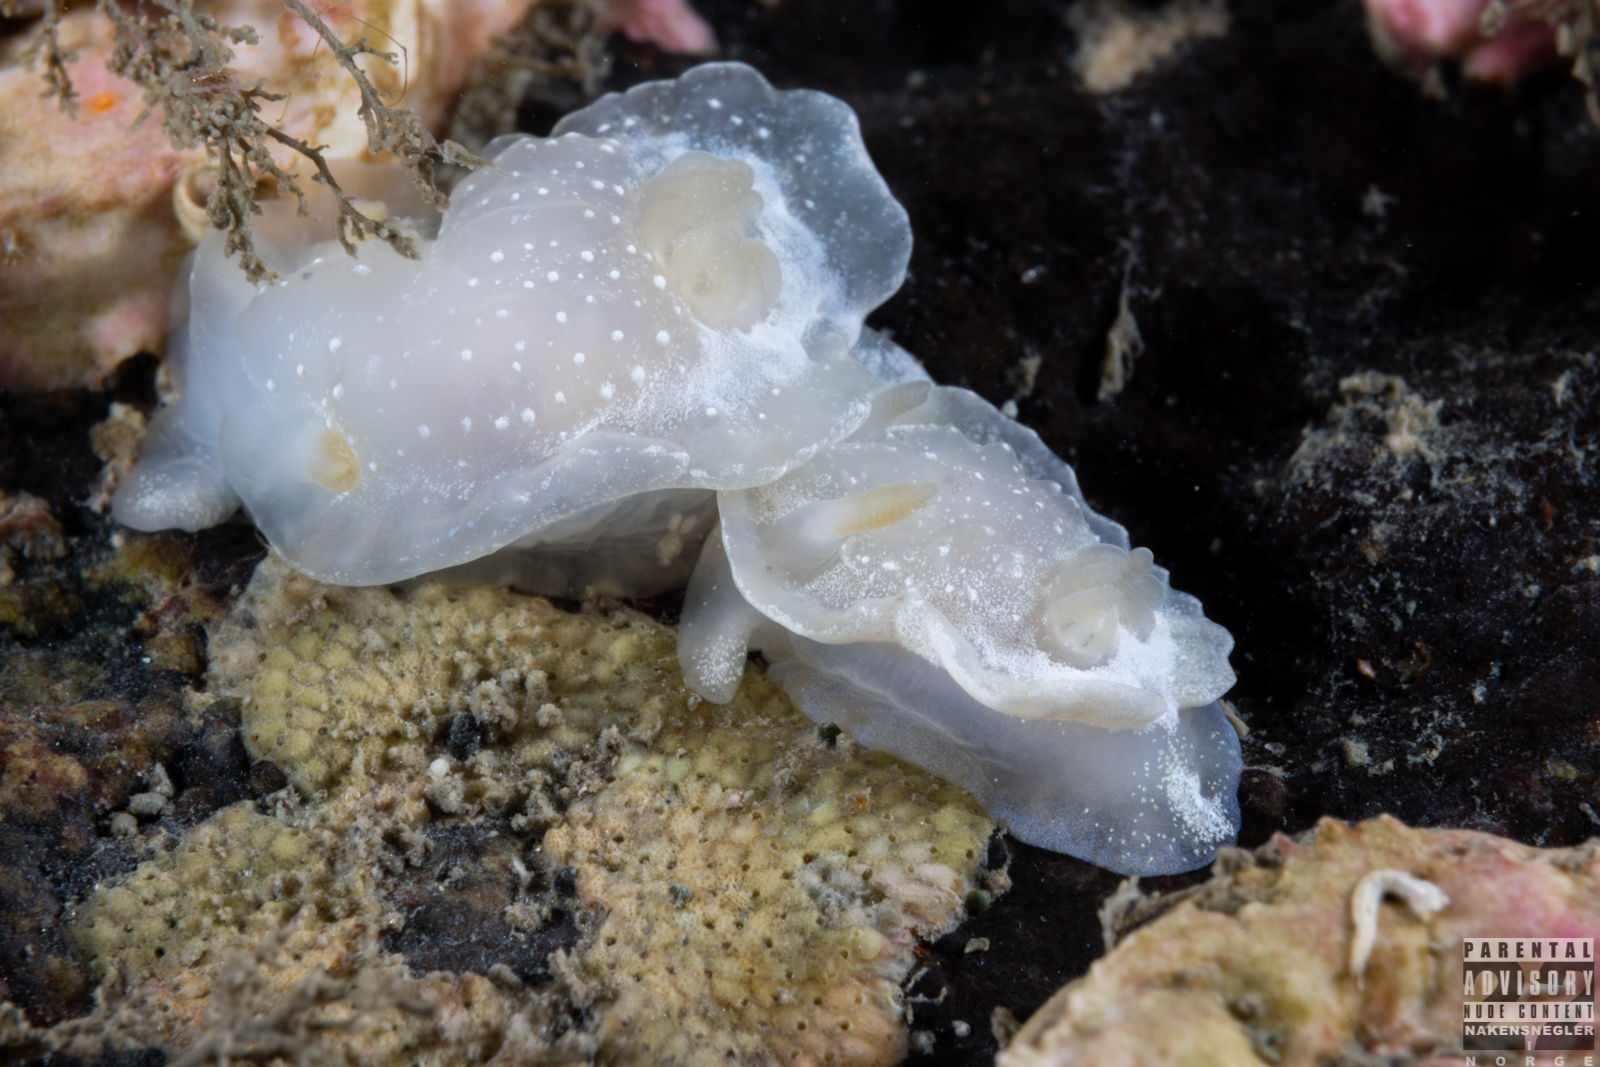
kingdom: Animalia
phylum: Mollusca
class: Gastropoda
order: Nudibranchia
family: Goniodorididae
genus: Okenia
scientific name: Okenia
